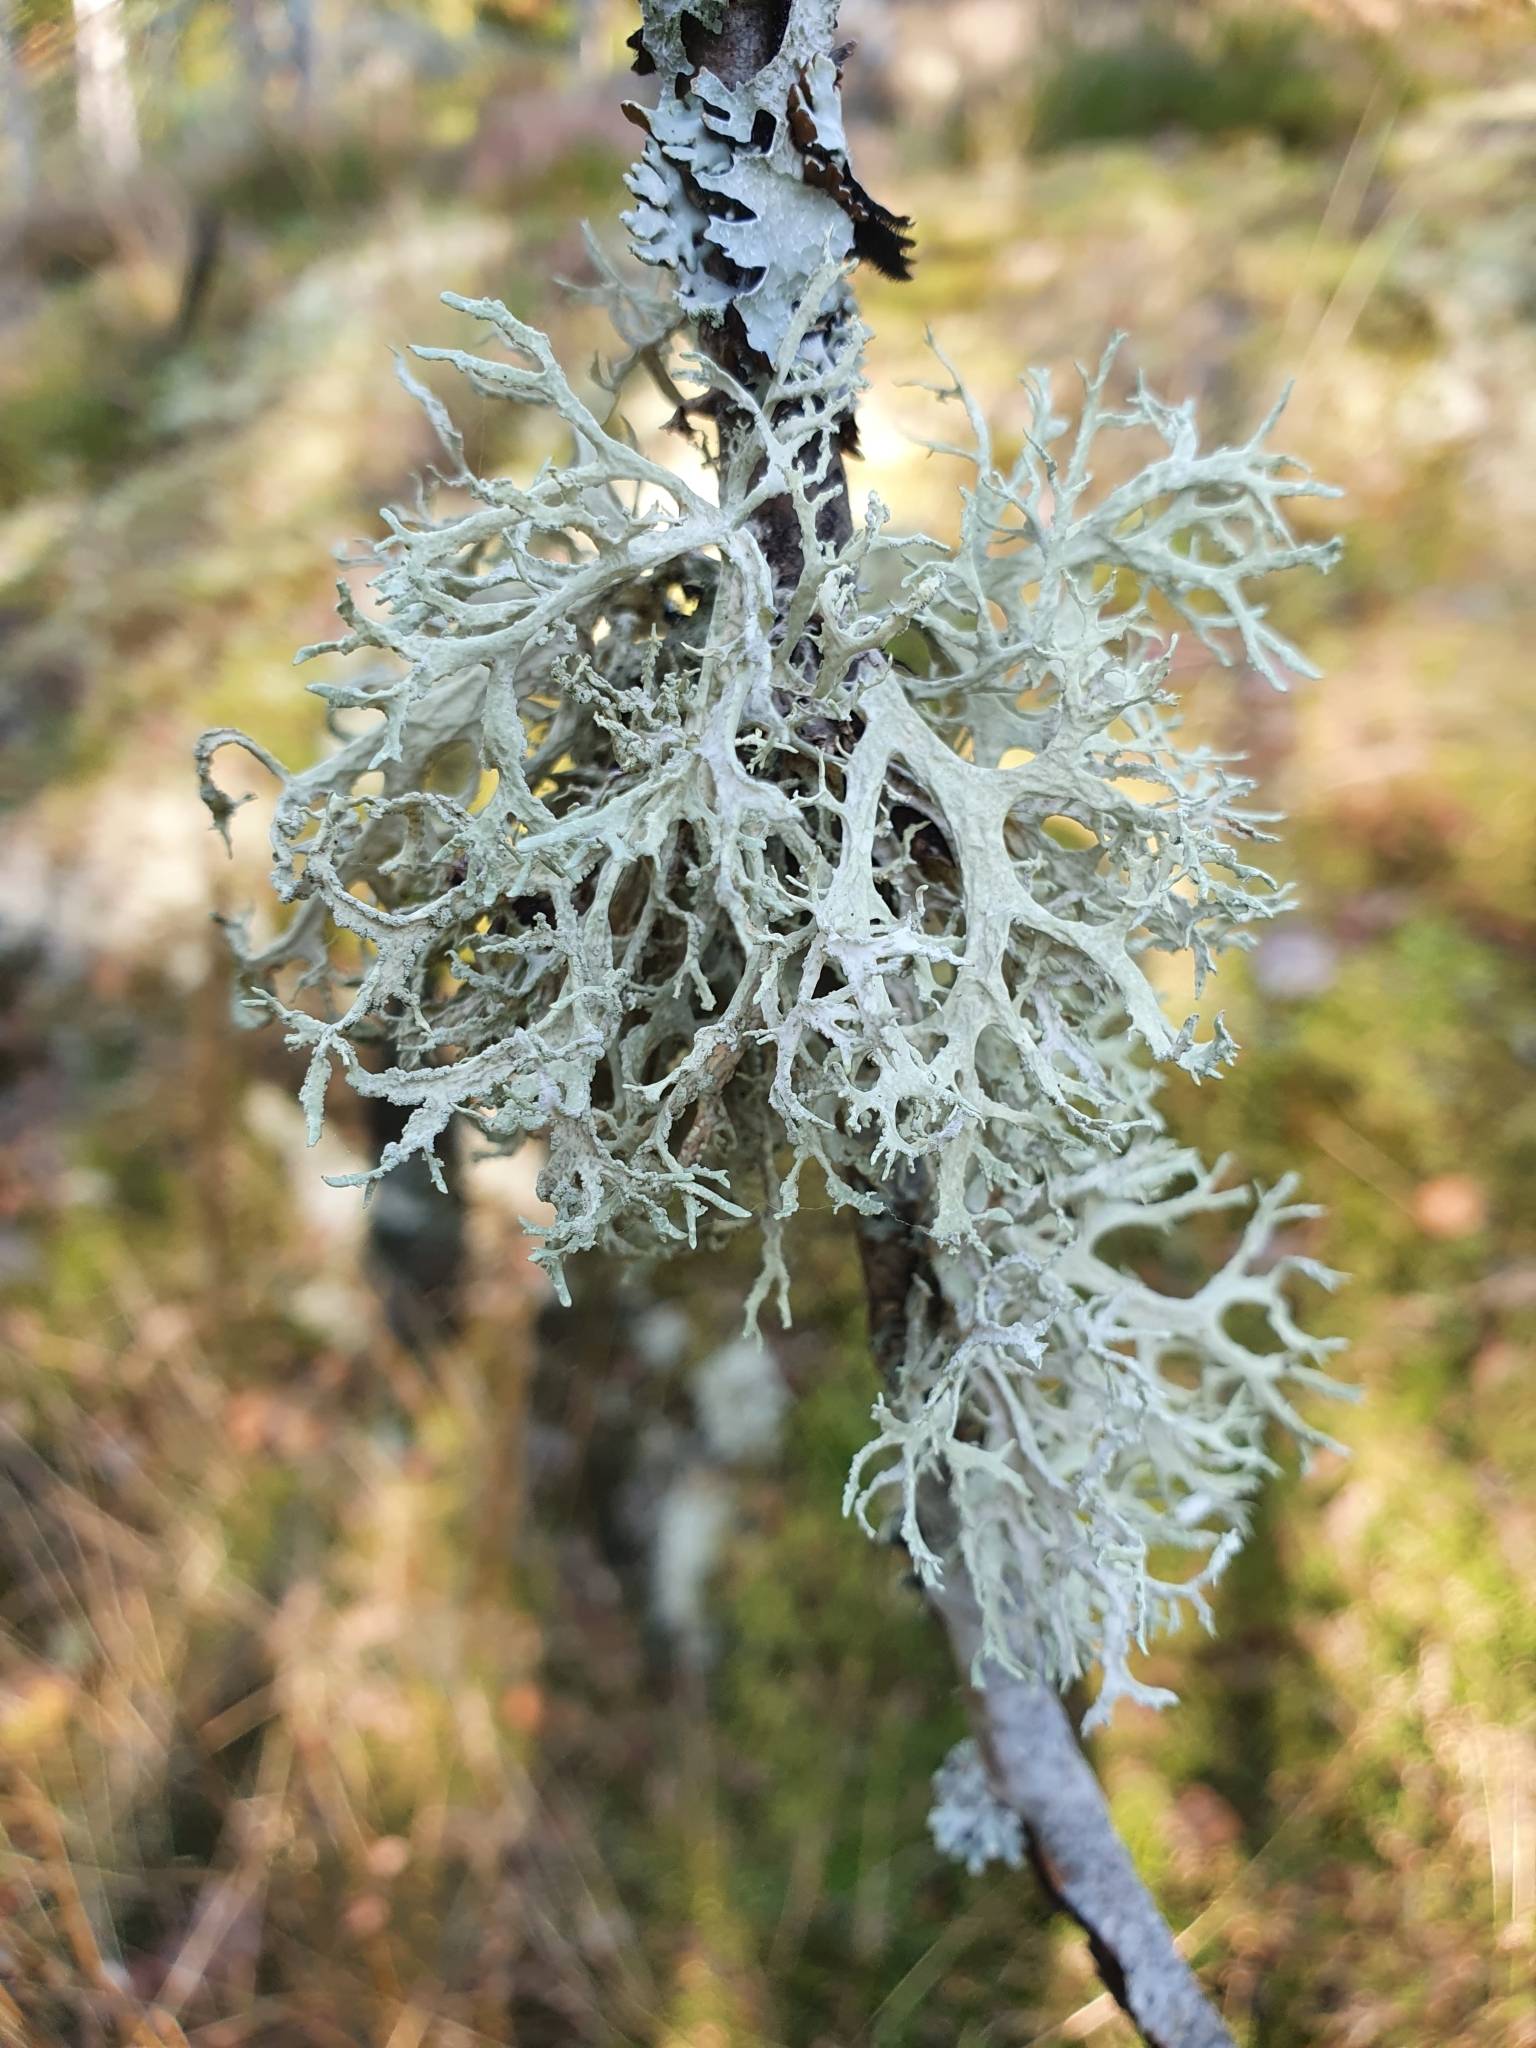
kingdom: Fungi
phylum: Ascomycota
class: Lecanoromycetes
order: Lecanorales
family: Parmeliaceae
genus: Evernia
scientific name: Evernia prunastri
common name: Oak moss
